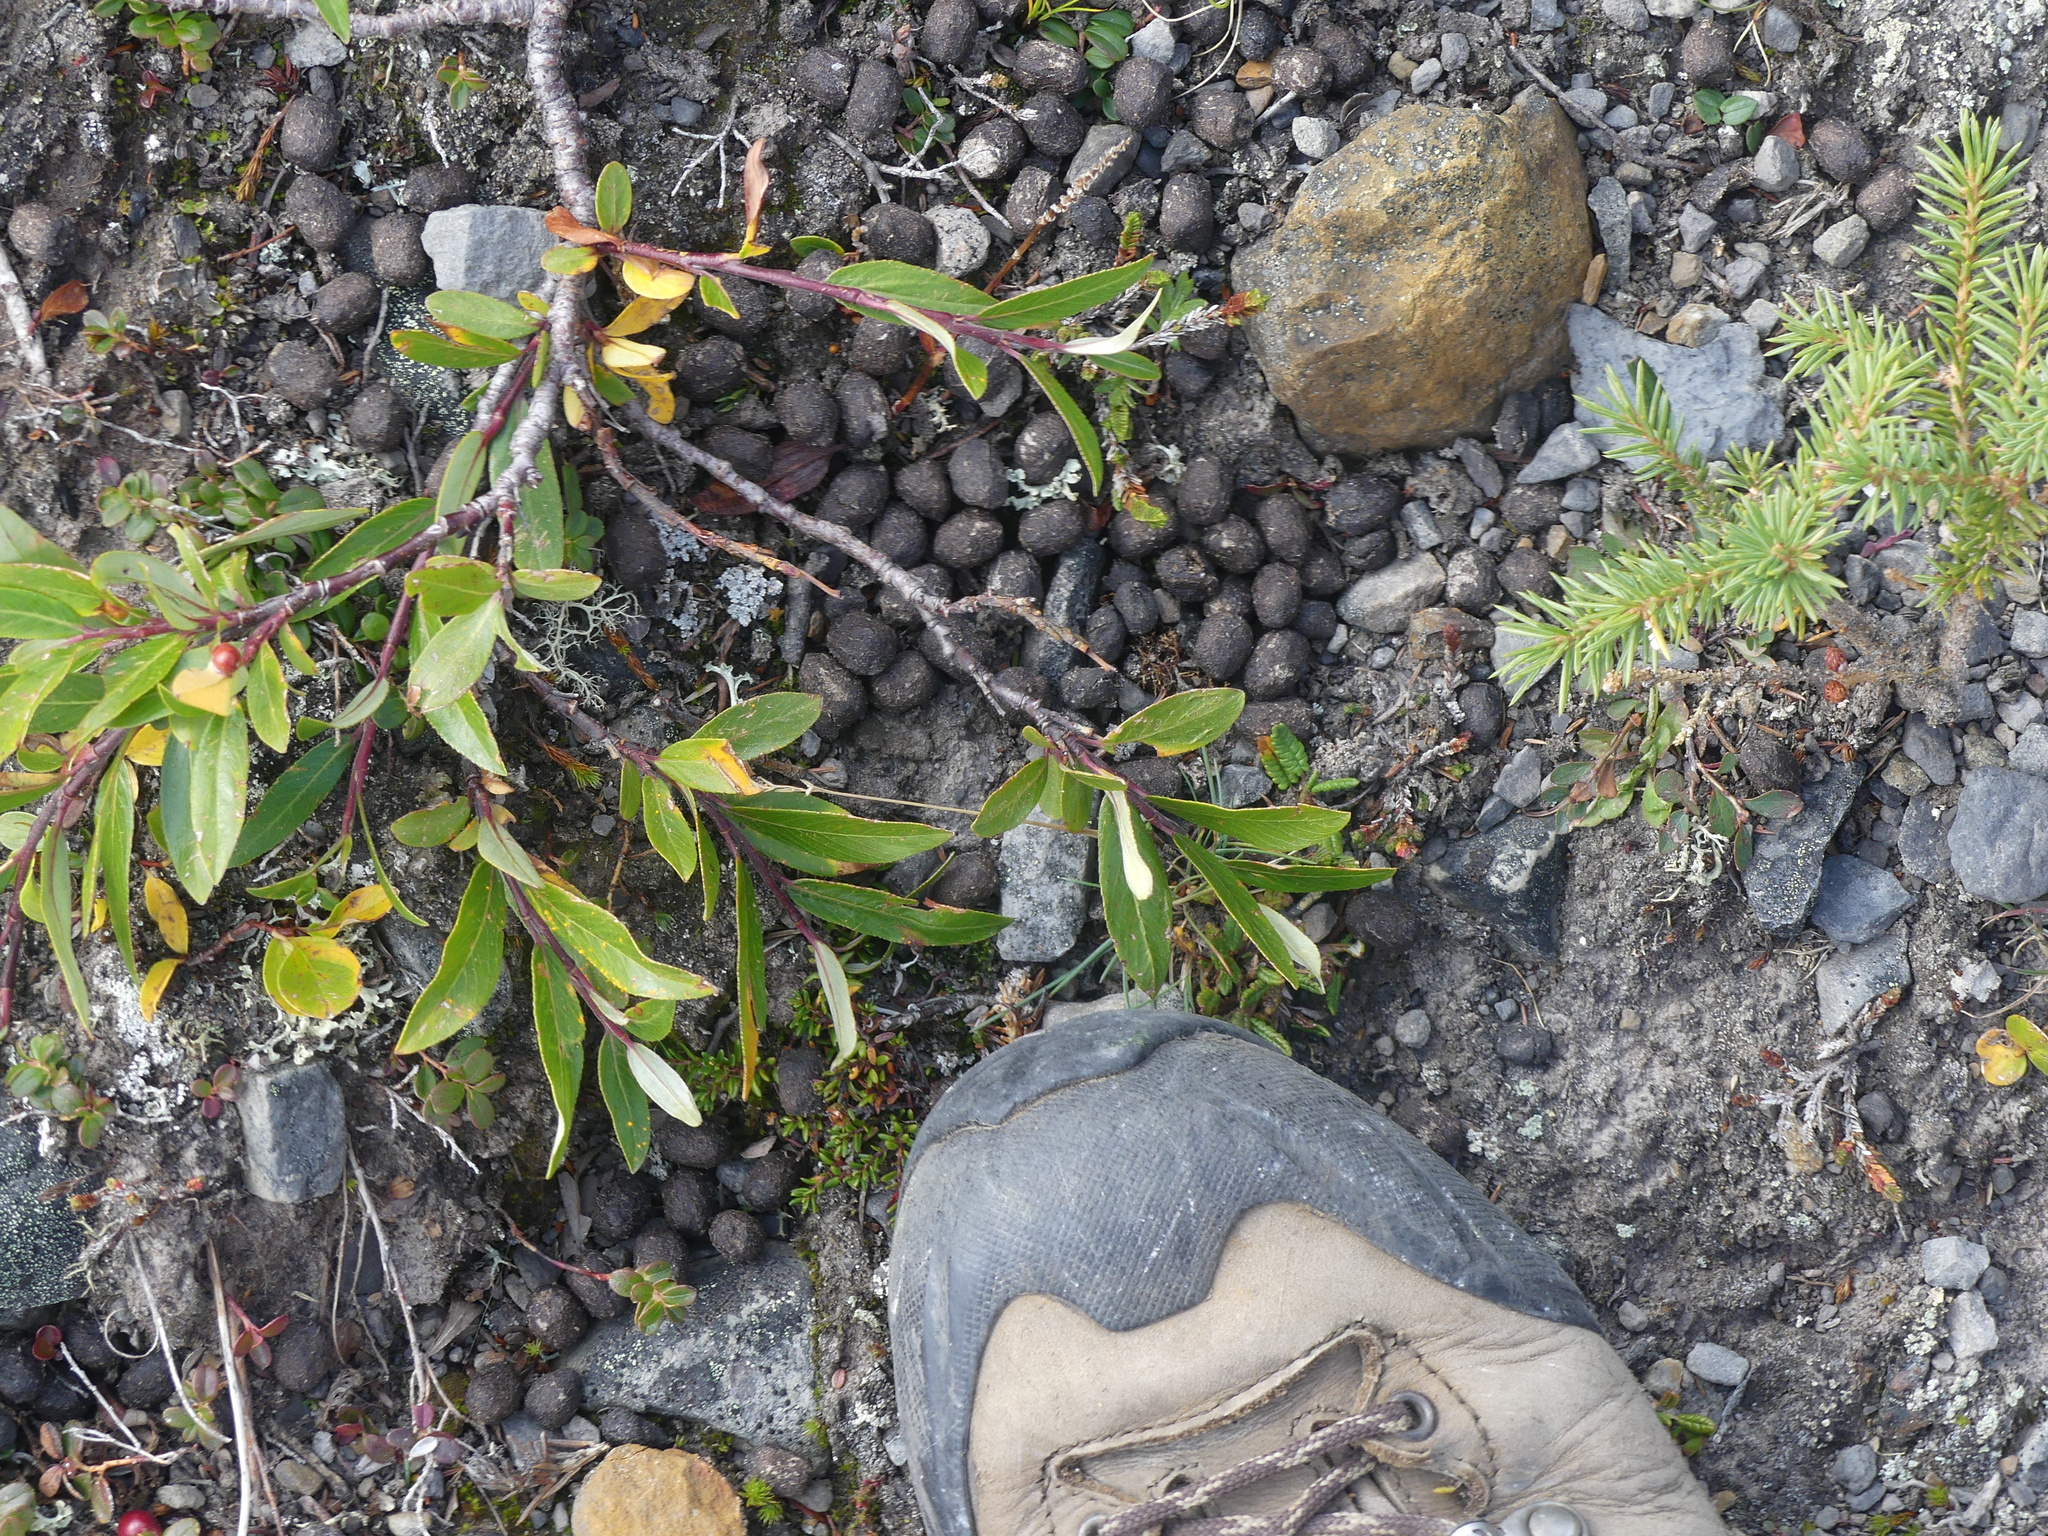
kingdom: Animalia
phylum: Chordata
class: Mammalia
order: Artiodactyla
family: Bovidae
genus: Ovis
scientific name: Ovis dalli
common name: Dall's sheep
